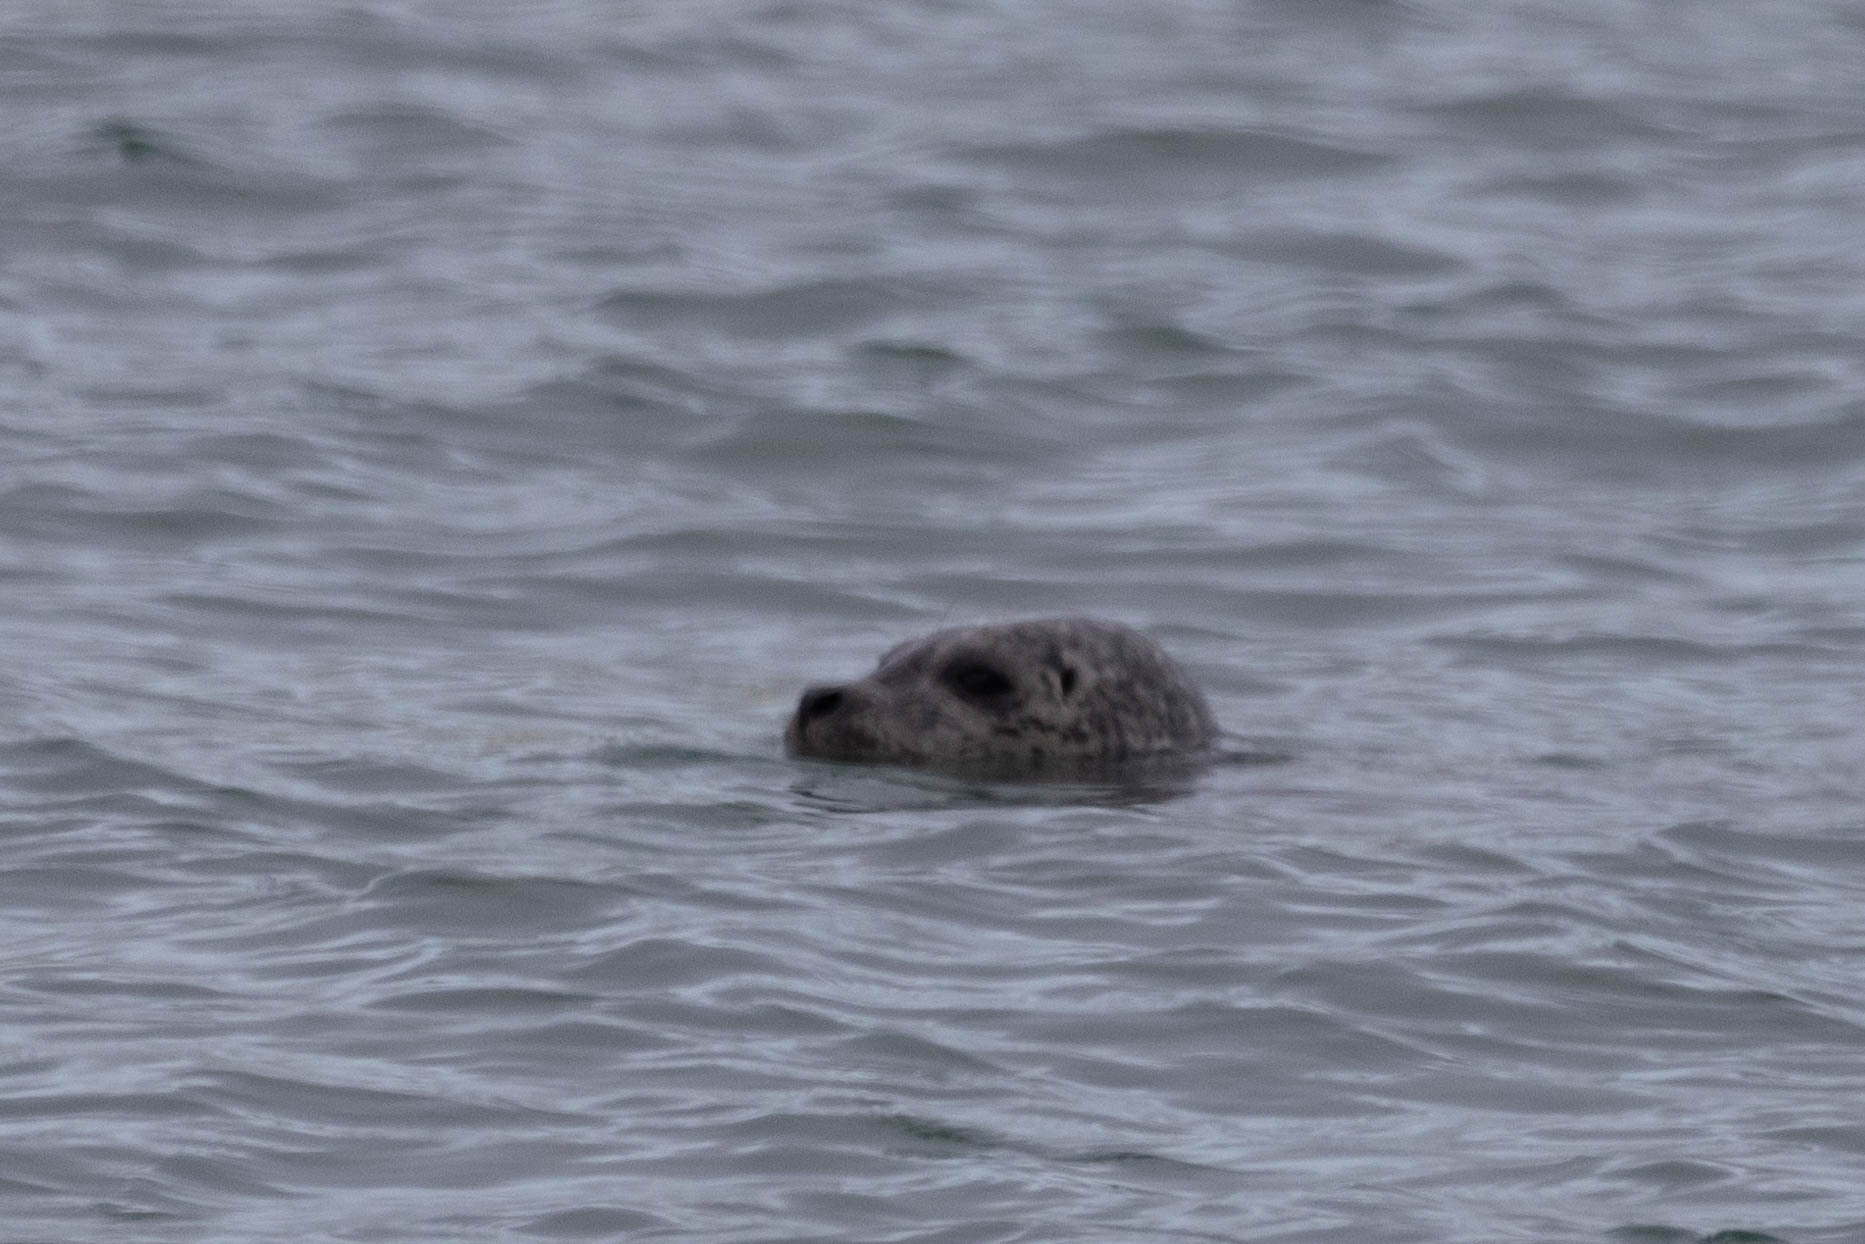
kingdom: Animalia
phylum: Chordata
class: Mammalia
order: Carnivora
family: Phocidae
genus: Phoca
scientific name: Phoca vitulina
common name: Harbor seal
